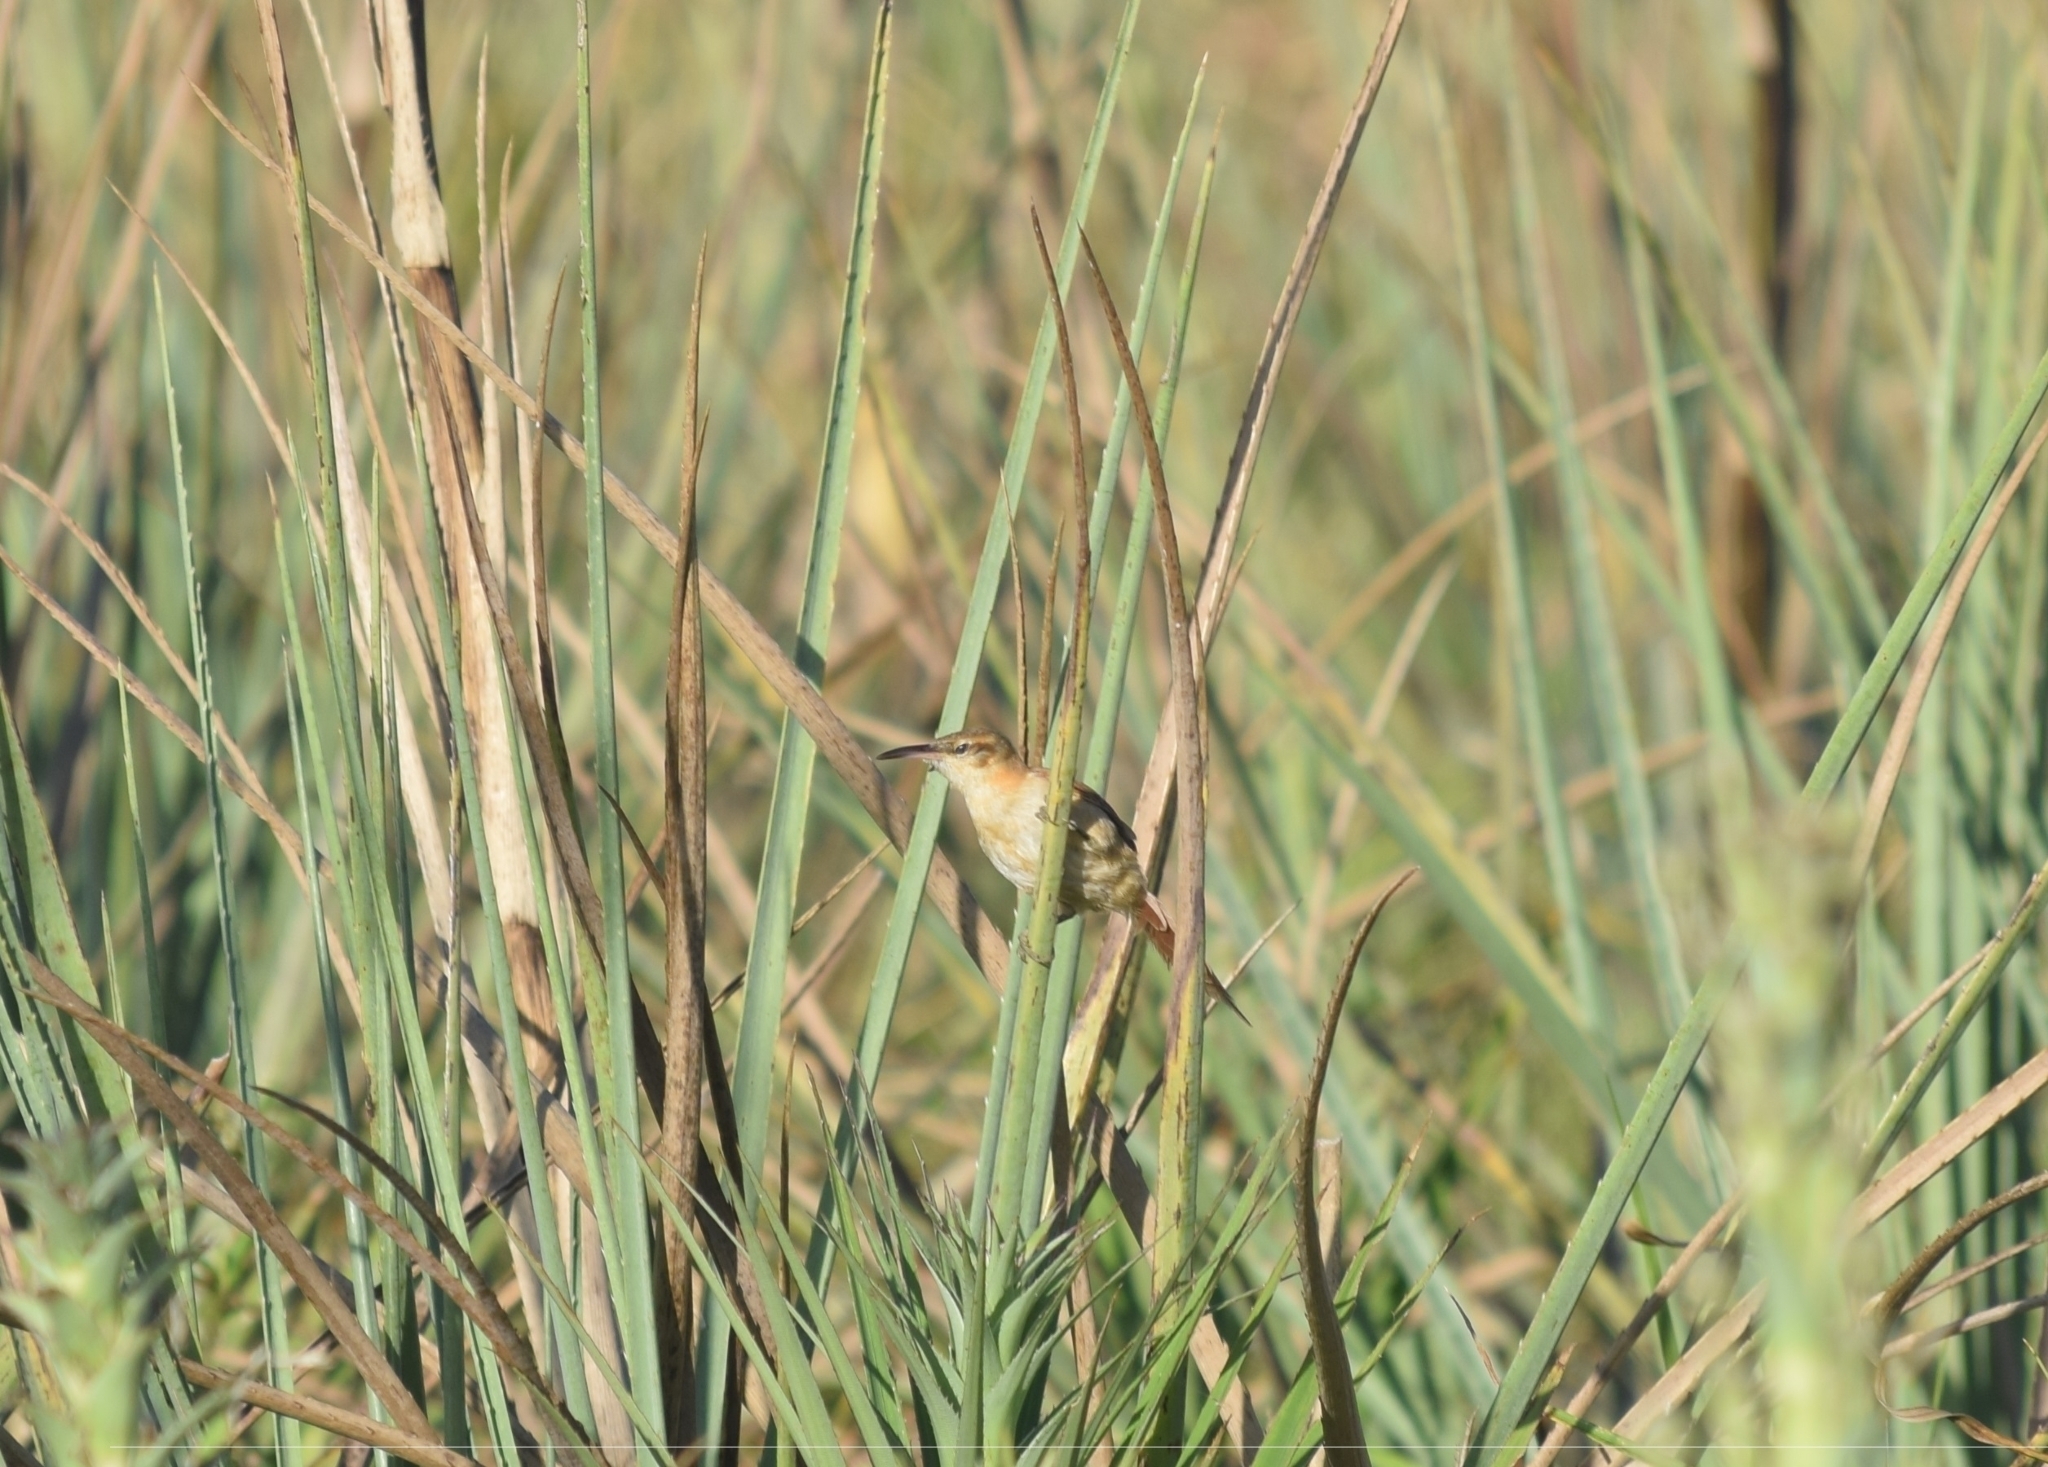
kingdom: Animalia
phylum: Chordata
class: Aves
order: Passeriformes
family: Furnariidae
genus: Limnornis
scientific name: Limnornis rectirostris
